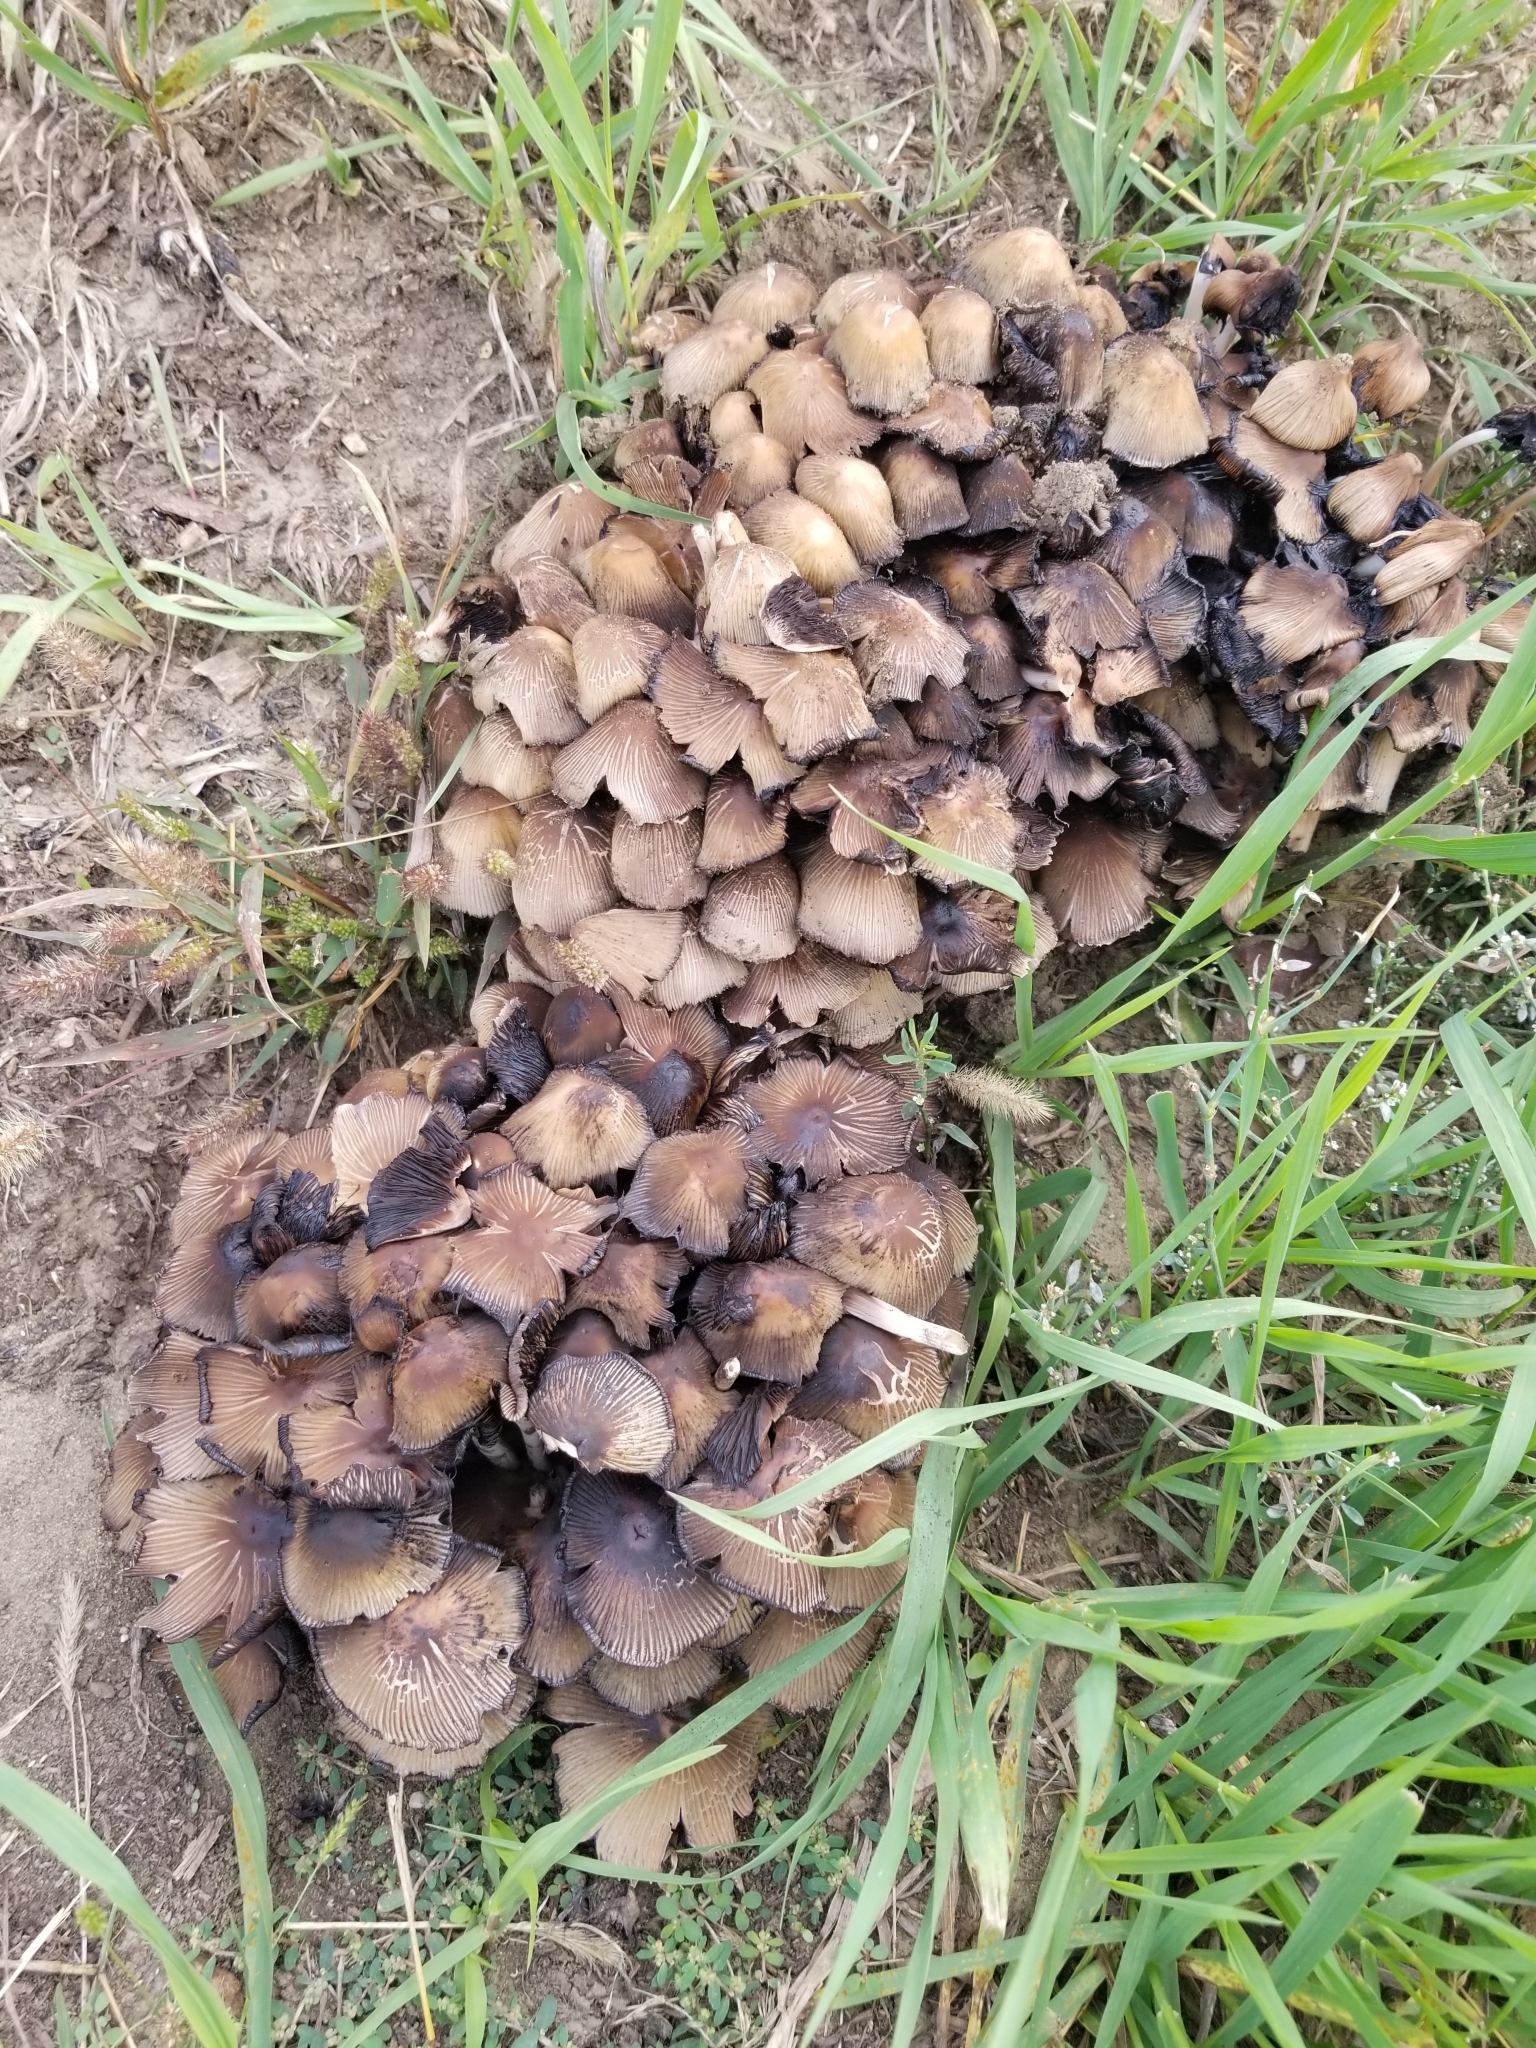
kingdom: Fungi
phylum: Basidiomycota
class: Agaricomycetes
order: Agaricales
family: Psathyrellaceae
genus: Coprinellus
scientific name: Coprinellus micaceus
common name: Glistening ink-cap
